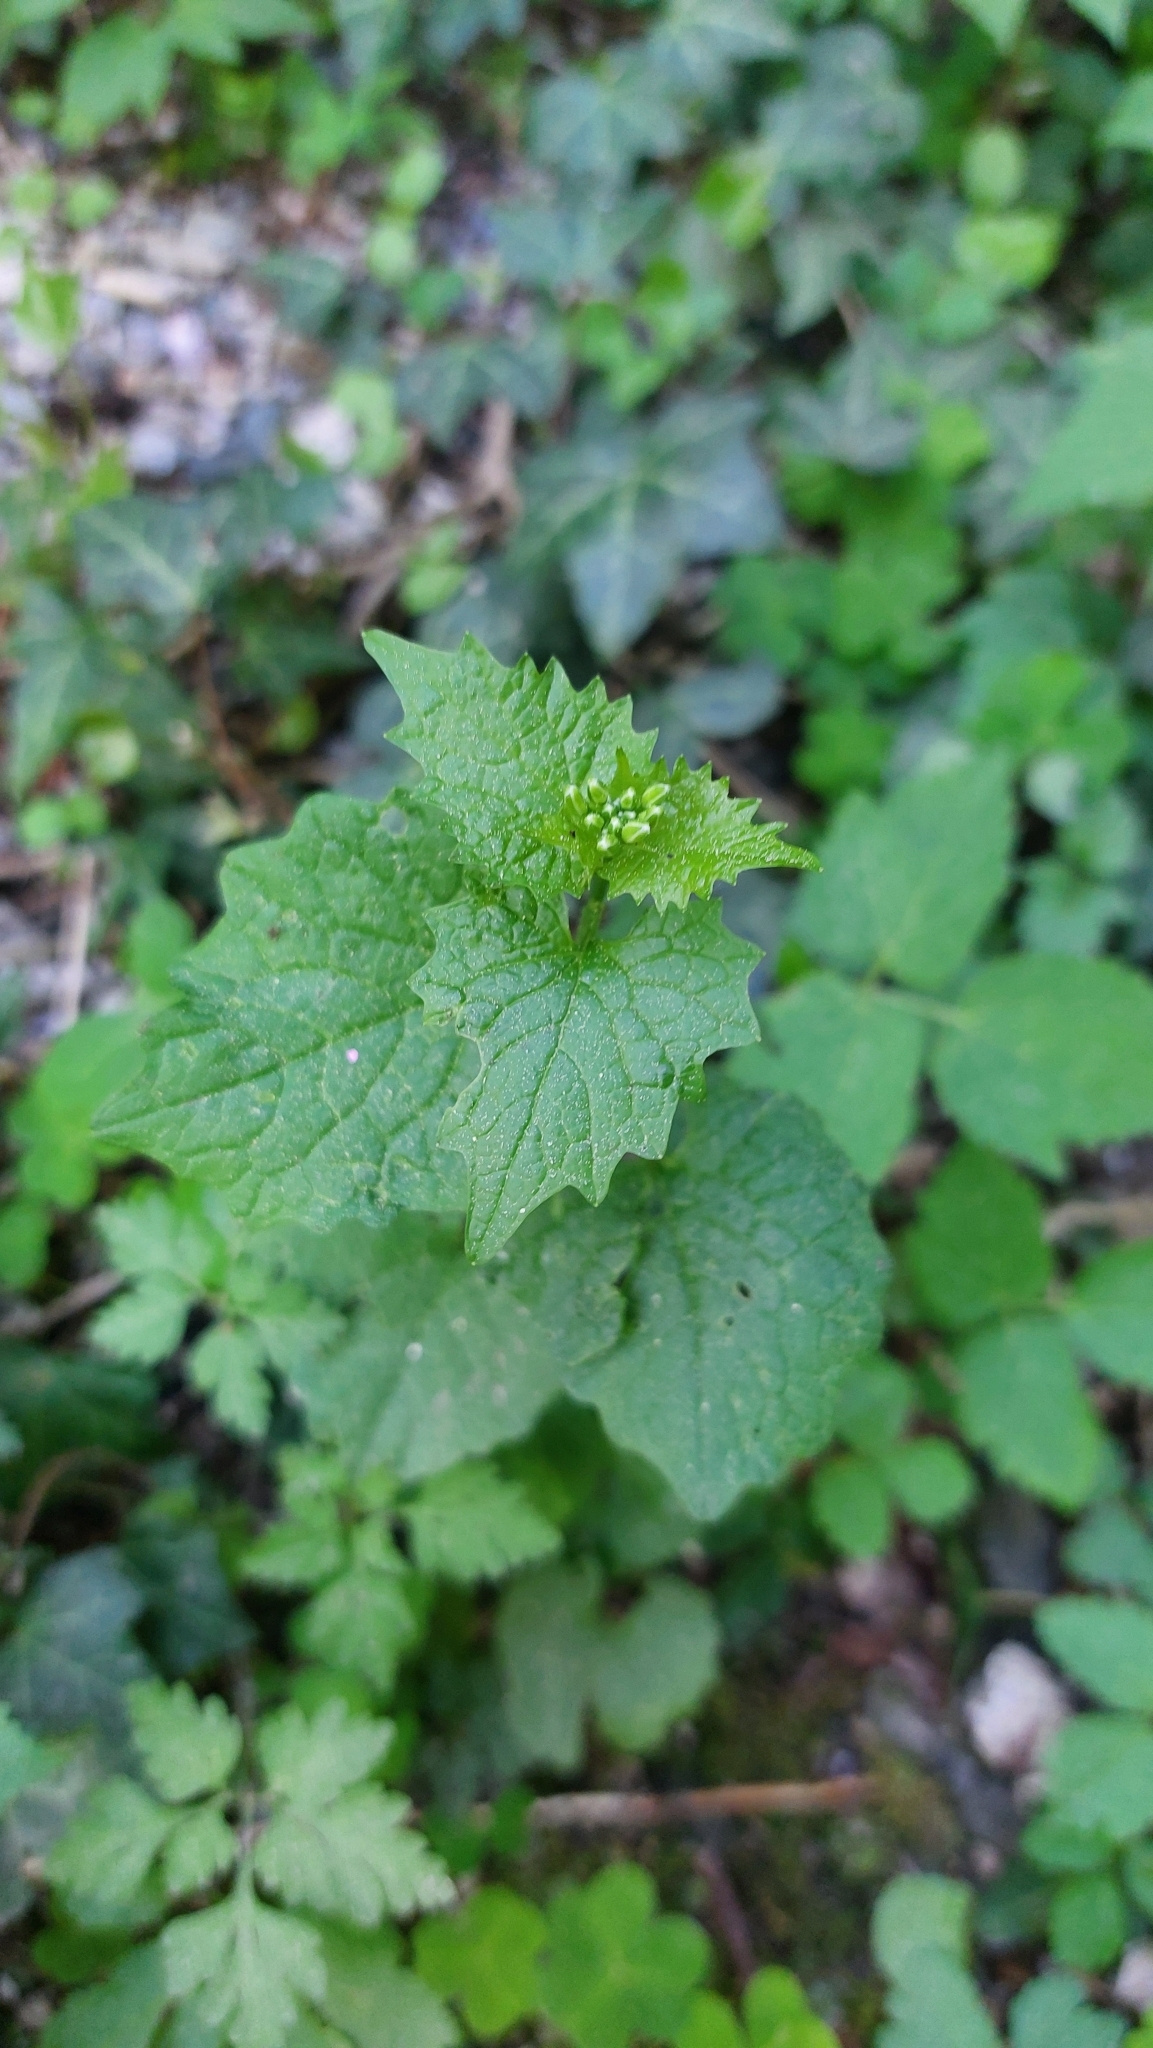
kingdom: Plantae
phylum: Tracheophyta
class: Magnoliopsida
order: Brassicales
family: Brassicaceae
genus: Alliaria
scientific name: Alliaria petiolata
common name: Garlic mustard
